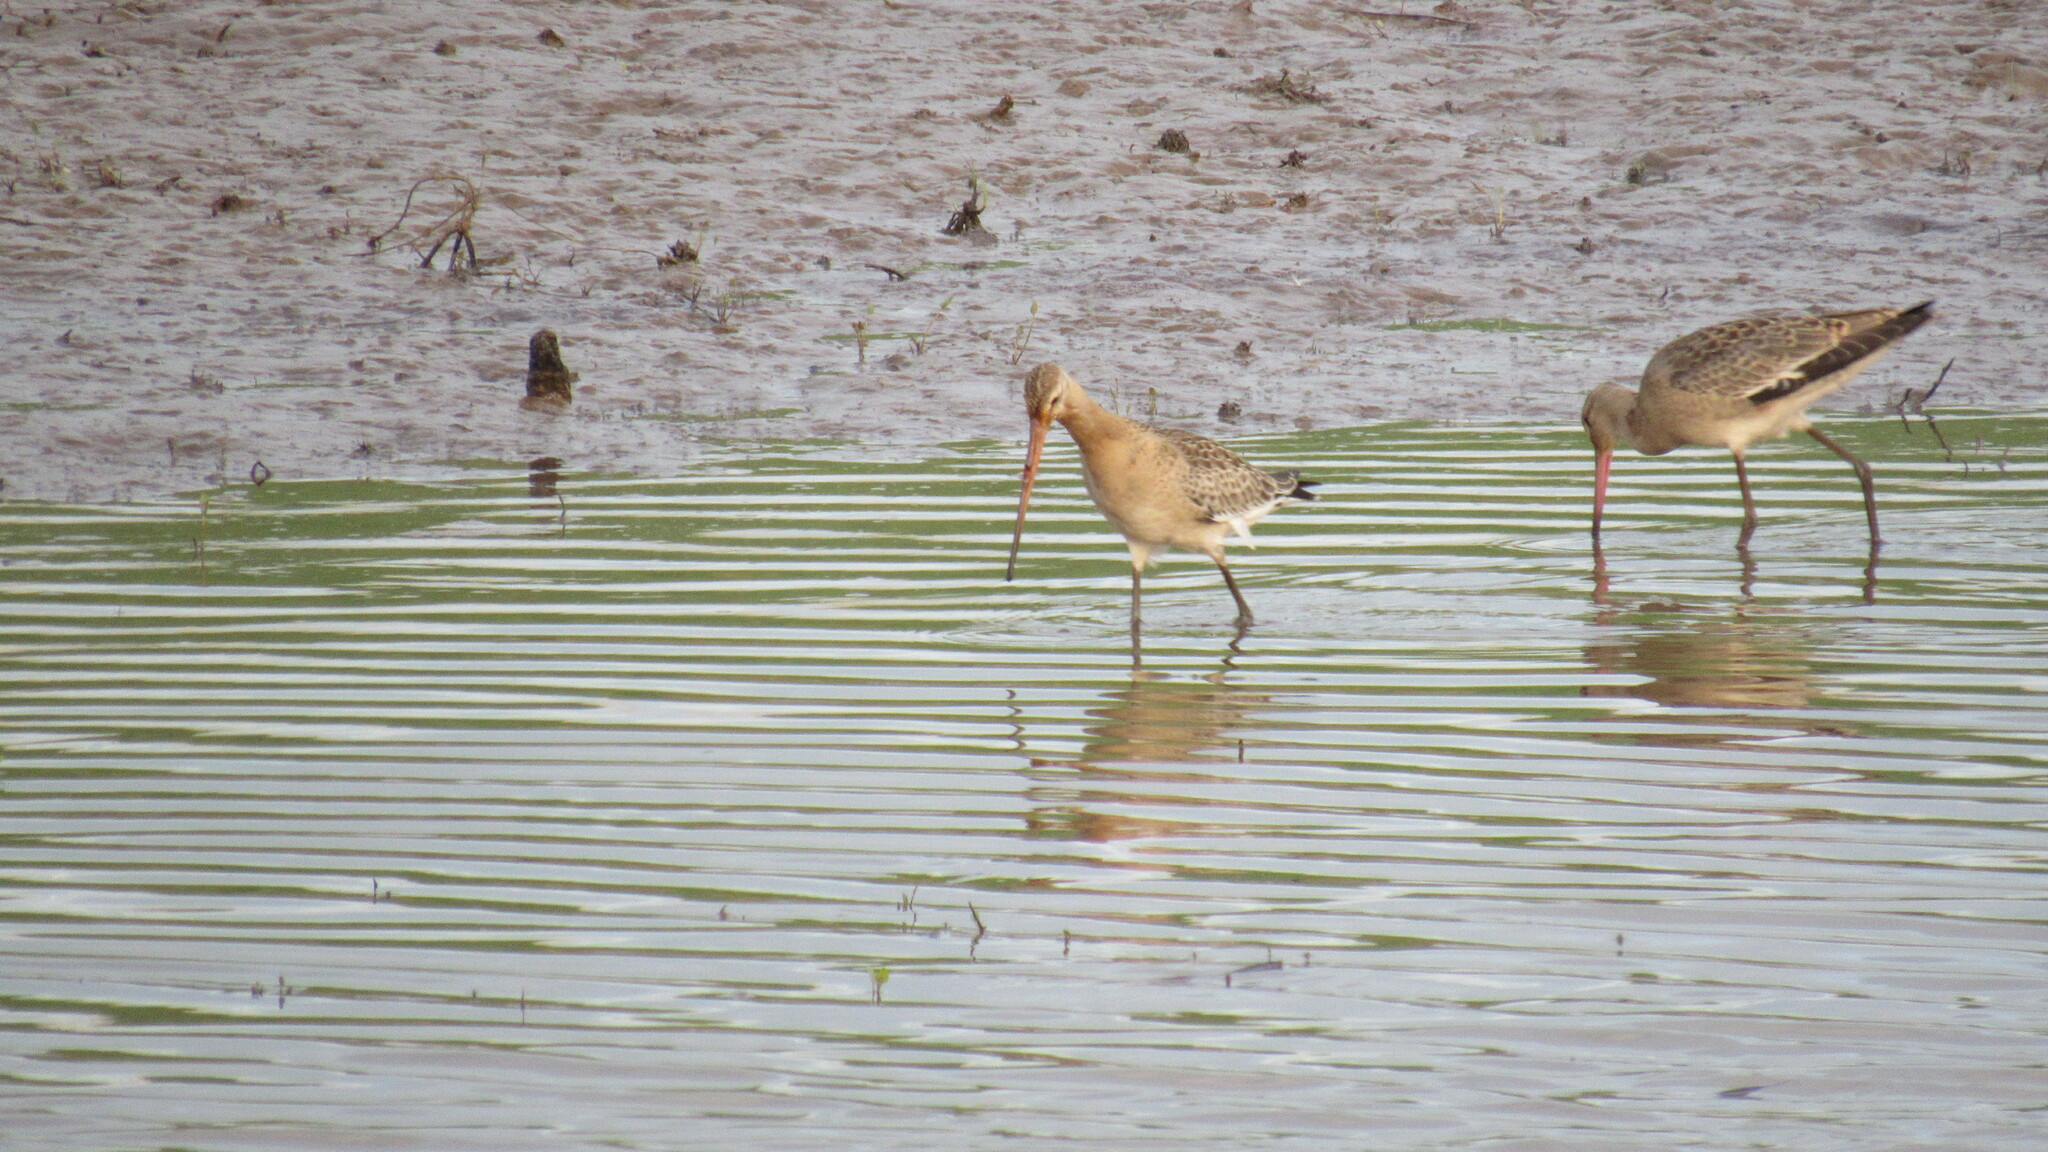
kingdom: Animalia
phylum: Chordata
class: Aves
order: Charadriiformes
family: Scolopacidae
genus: Limosa
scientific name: Limosa limosa
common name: Black-tailed godwit
